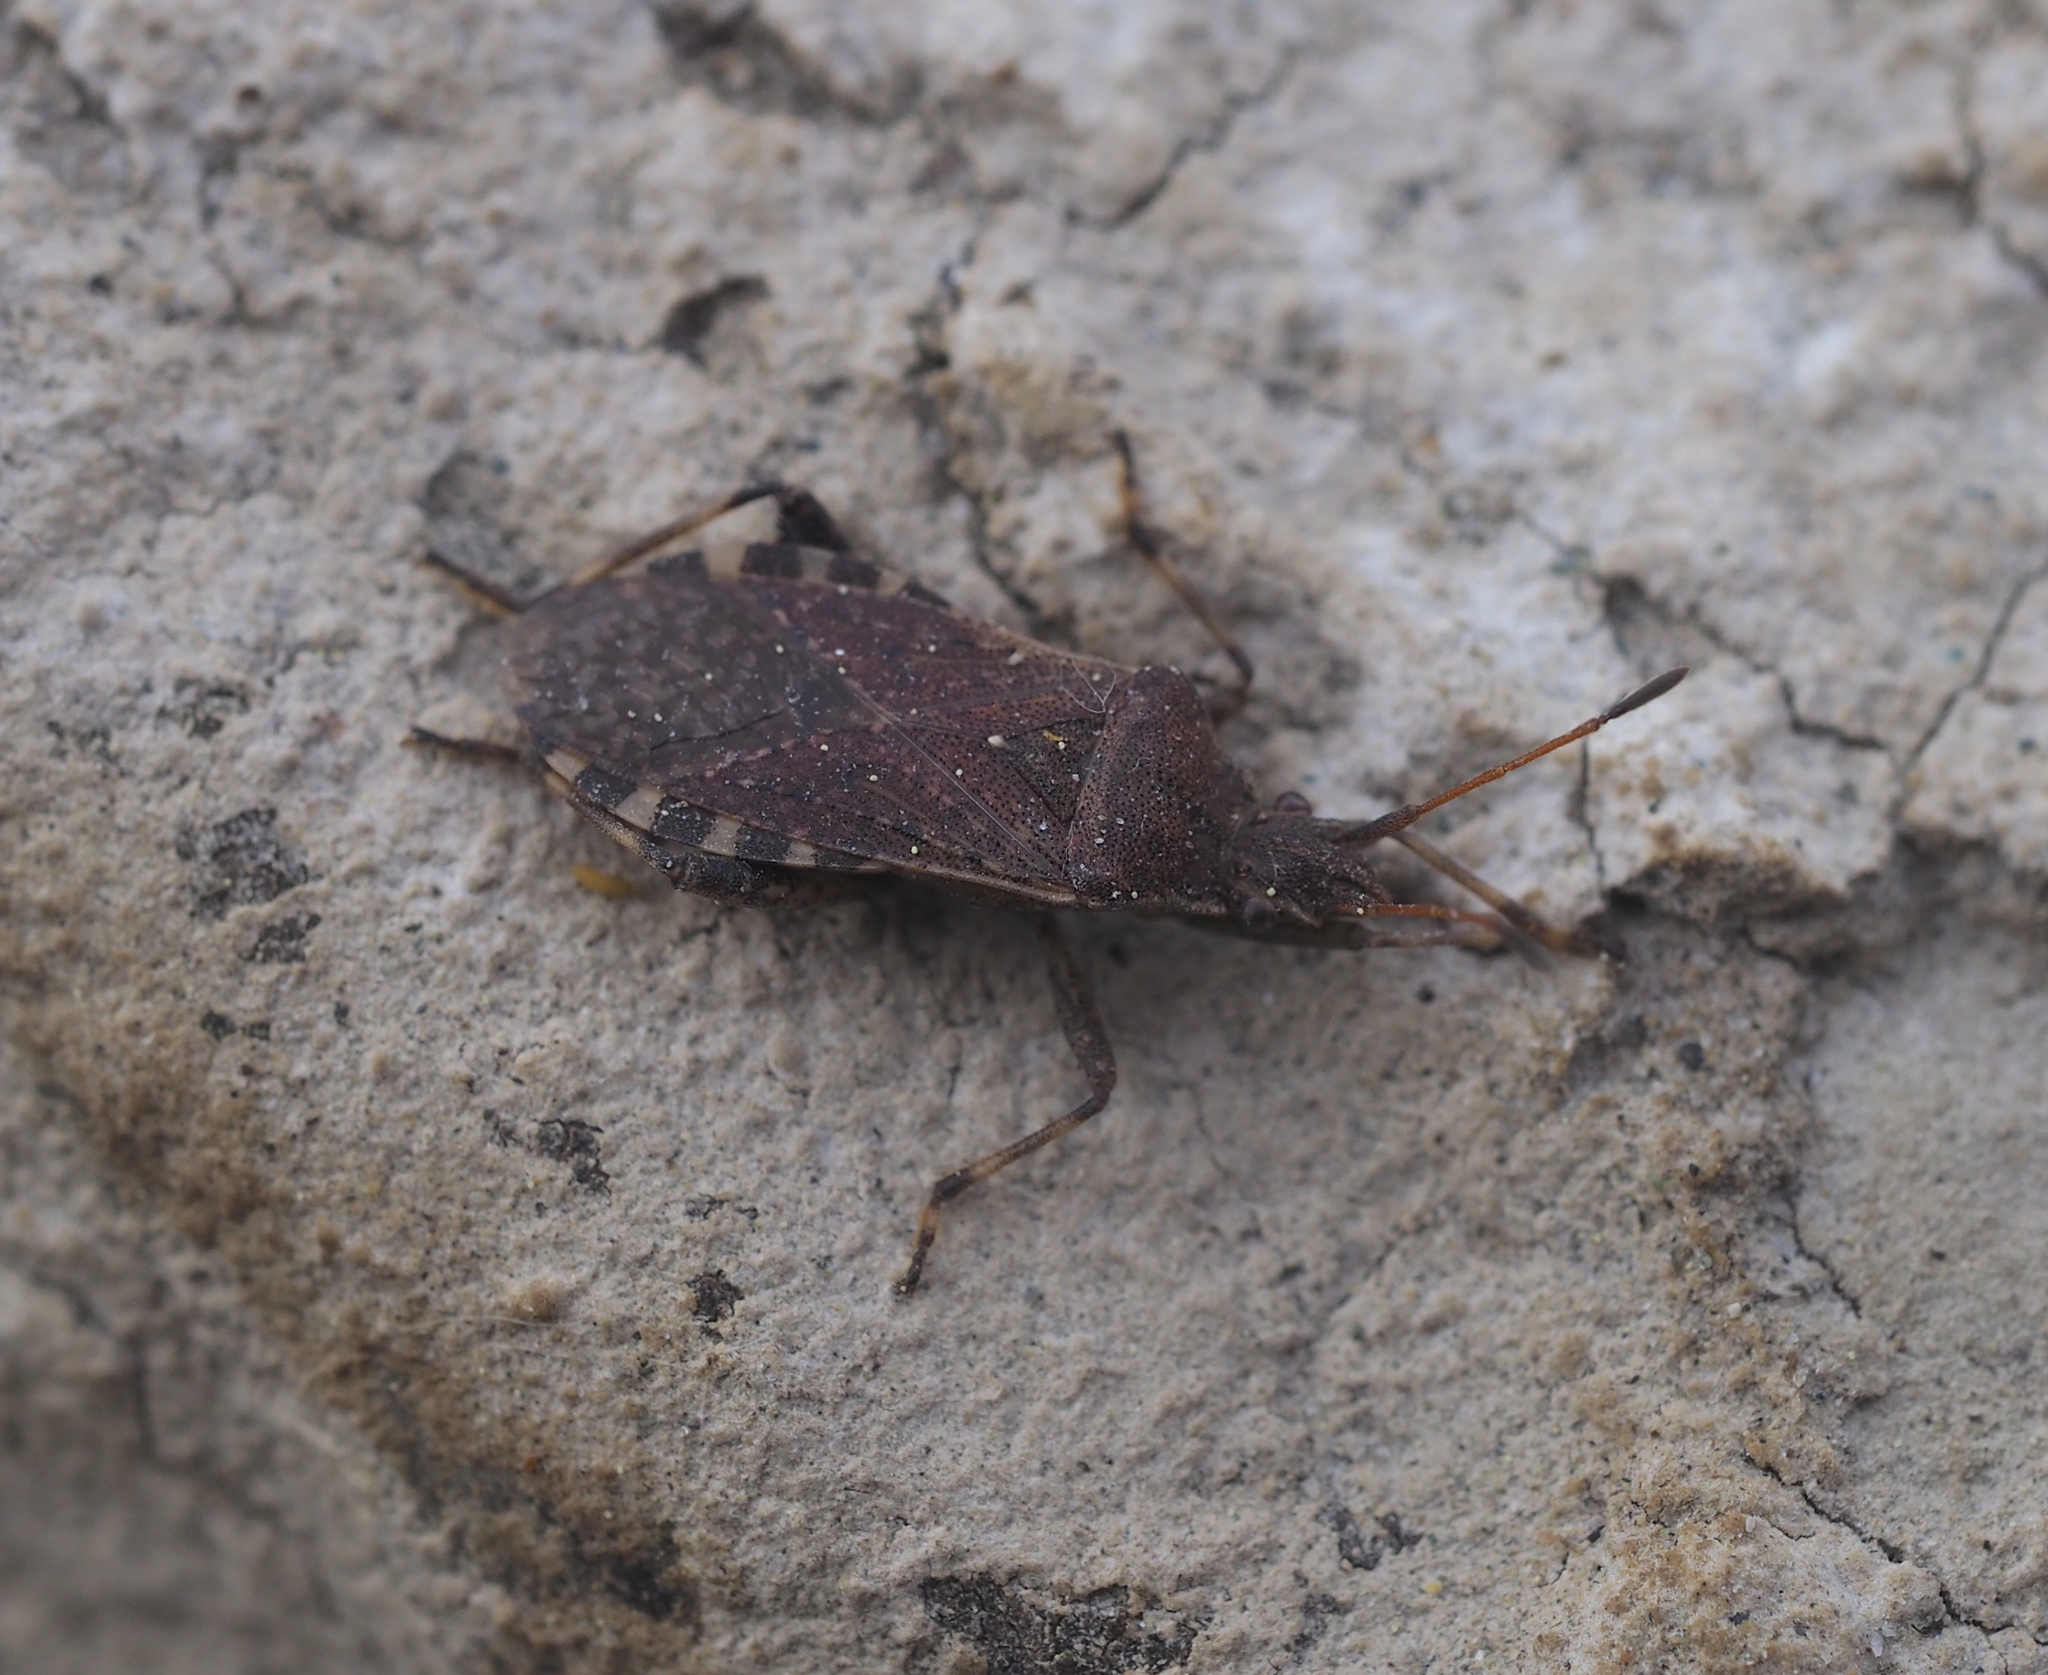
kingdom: Animalia
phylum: Arthropoda
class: Insecta
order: Hemiptera
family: Coreidae
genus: Ceraleptus
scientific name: Ceraleptus gracilicornis
